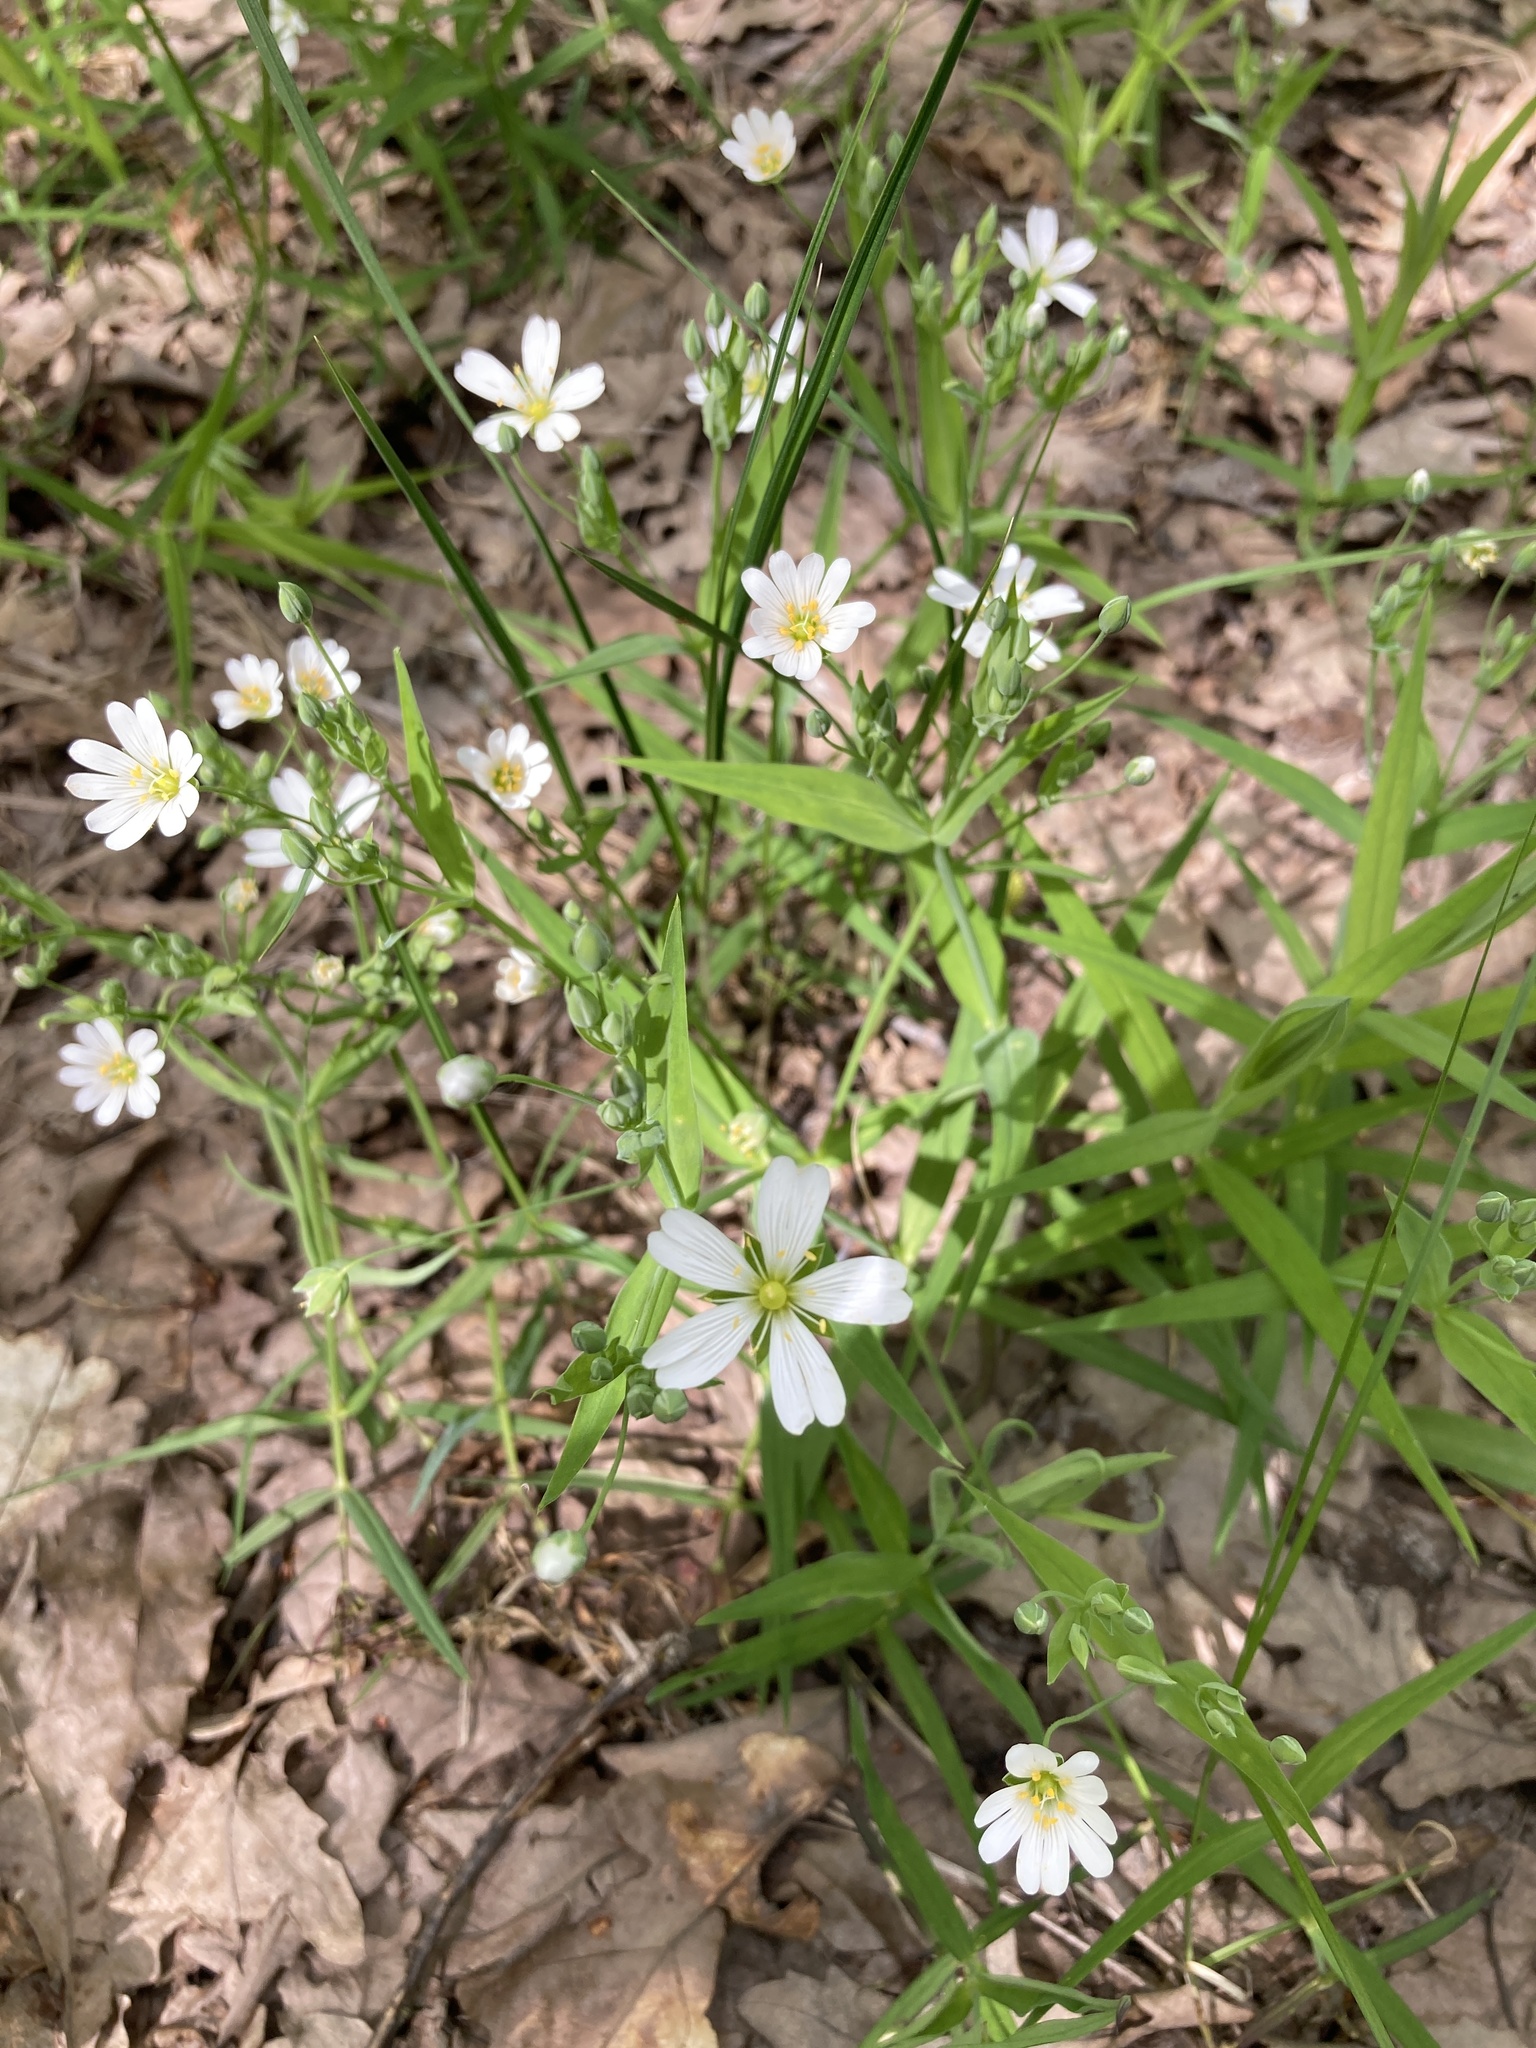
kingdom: Plantae
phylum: Tracheophyta
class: Magnoliopsida
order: Caryophyllales
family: Caryophyllaceae
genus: Rabelera
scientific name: Rabelera holostea
